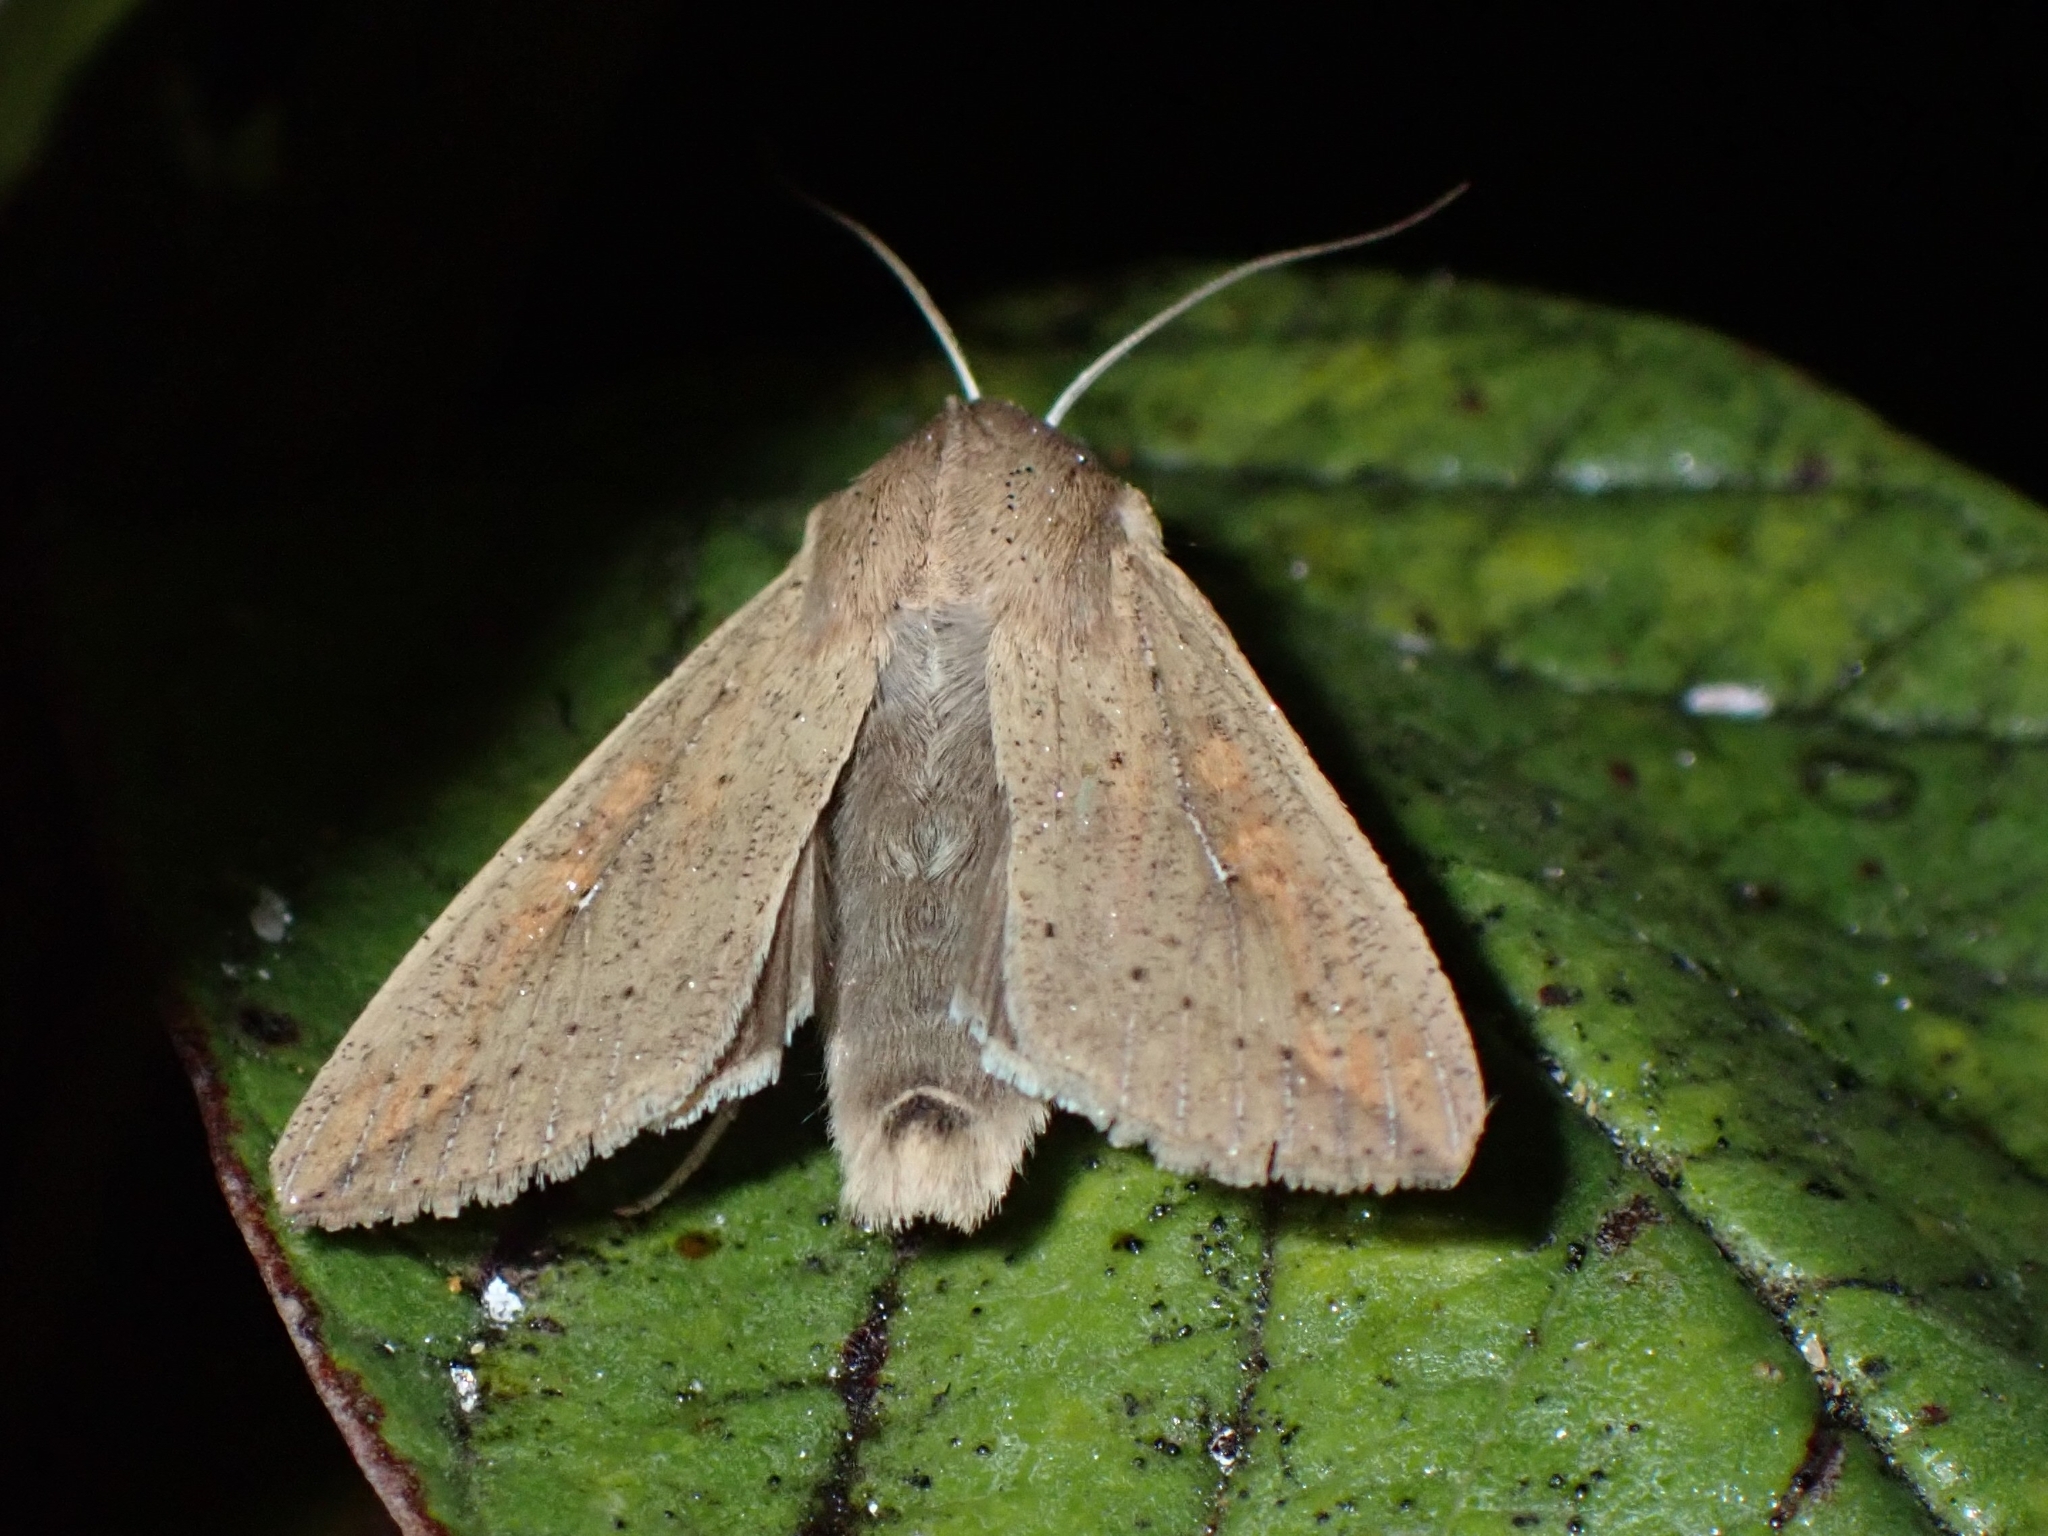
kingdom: Animalia
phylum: Arthropoda
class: Insecta
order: Lepidoptera
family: Noctuidae
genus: Mythimna
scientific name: Mythimna unipuncta
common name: White-speck
